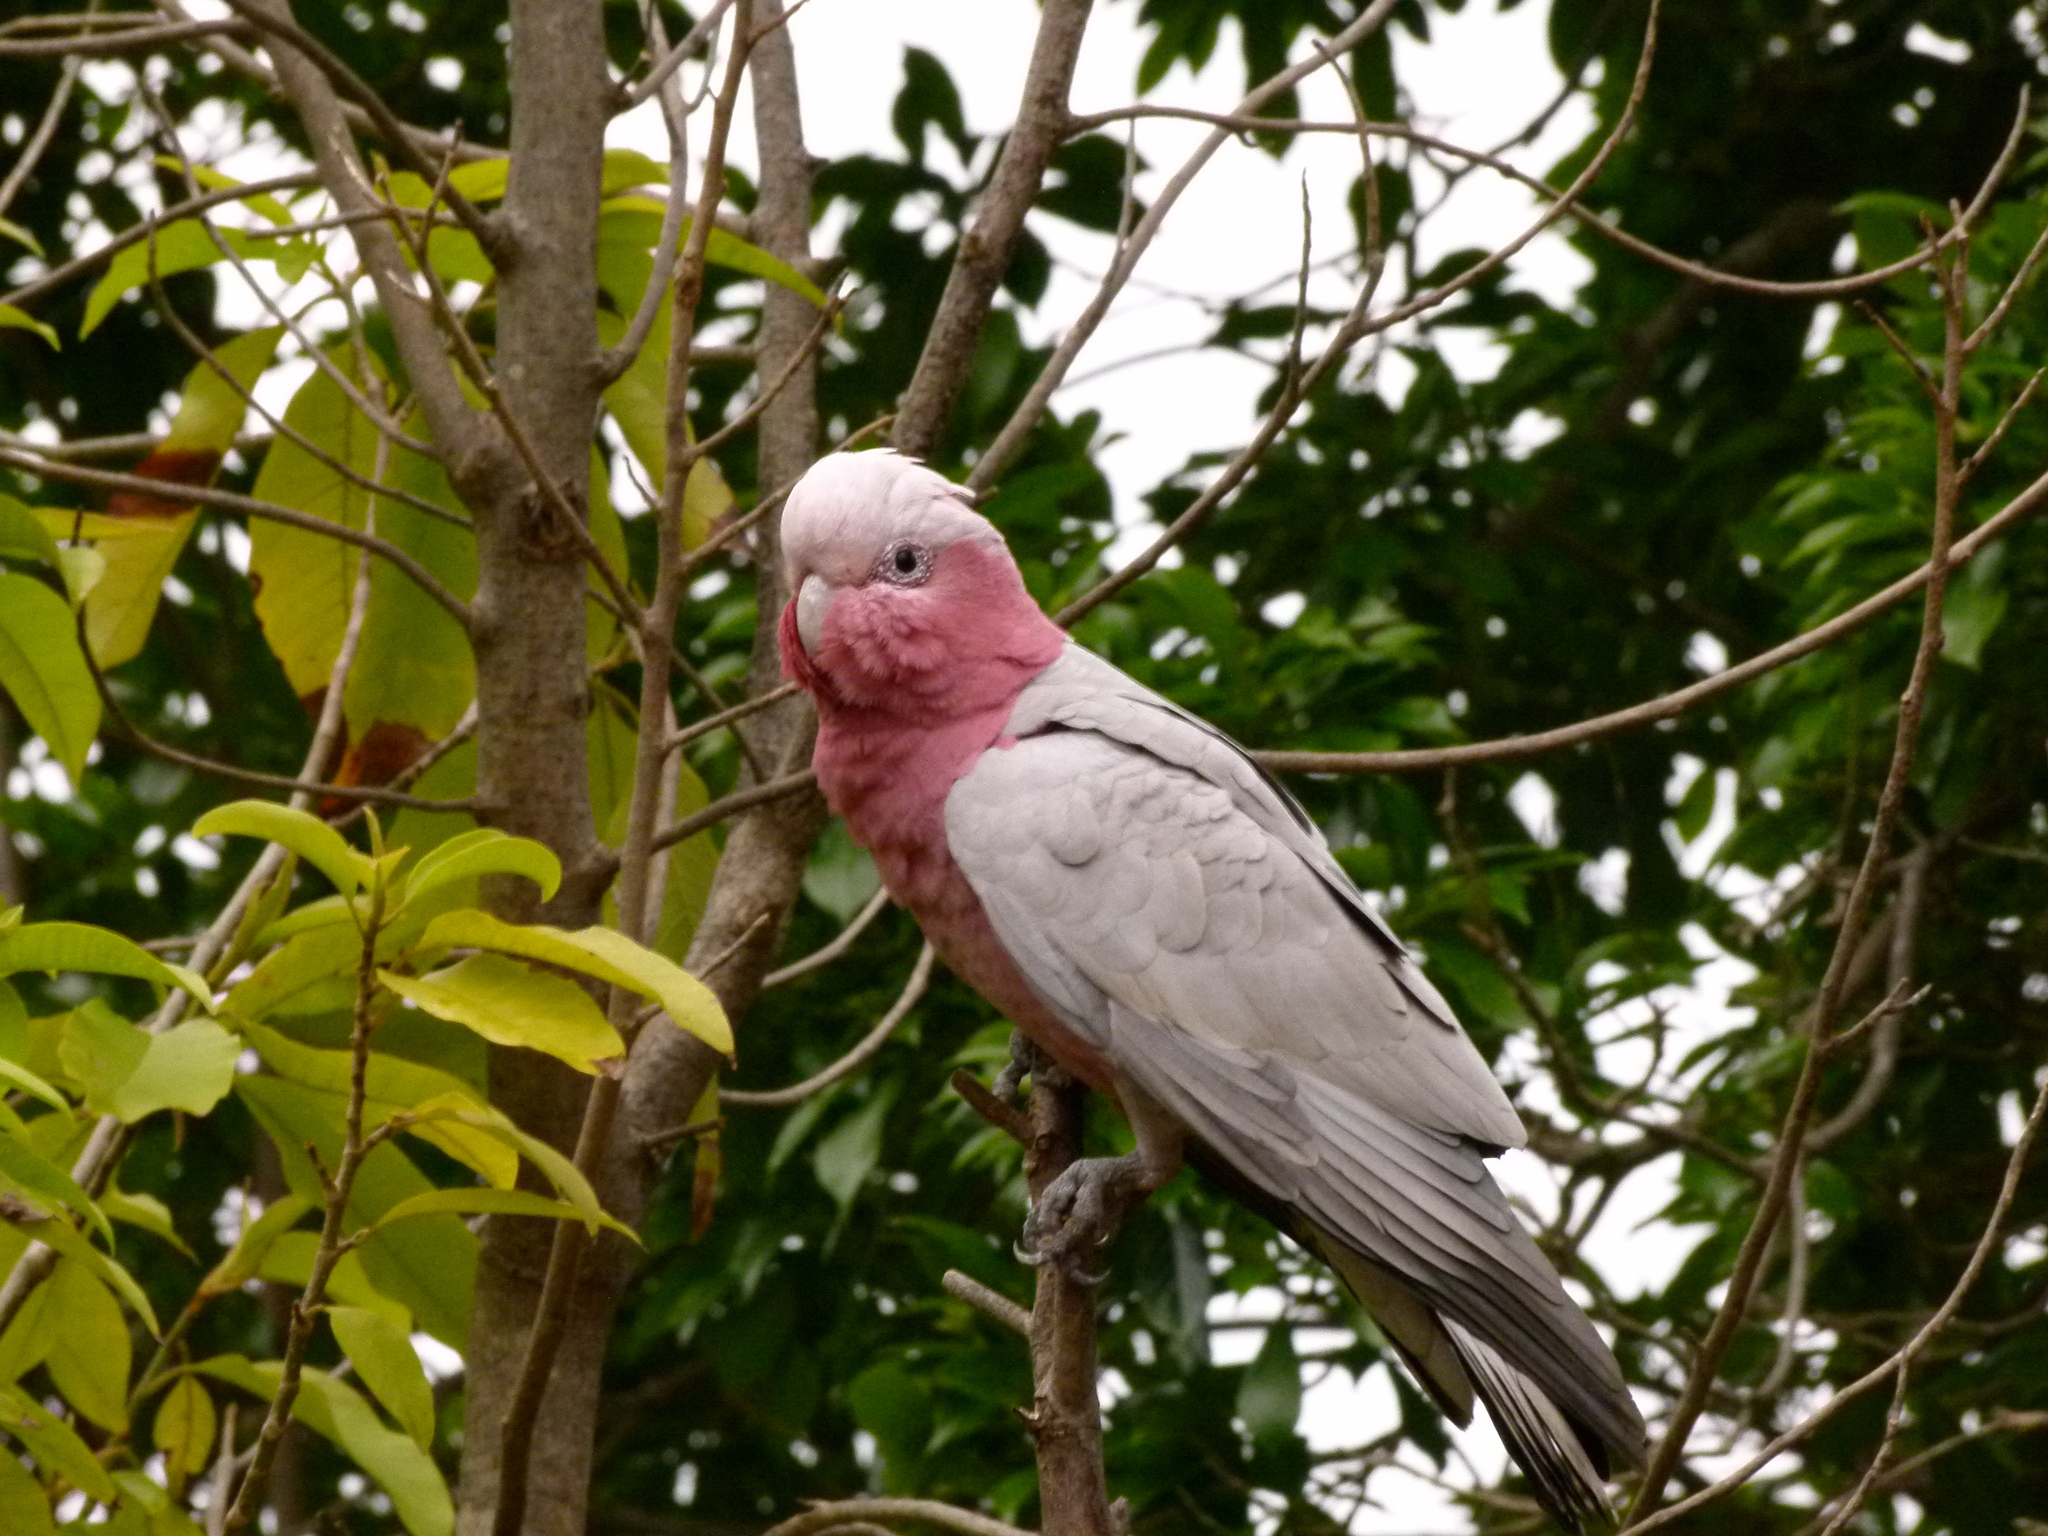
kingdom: Animalia
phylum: Chordata
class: Aves
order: Psittaciformes
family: Psittacidae
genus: Eolophus
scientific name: Eolophus roseicapilla
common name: Galah
